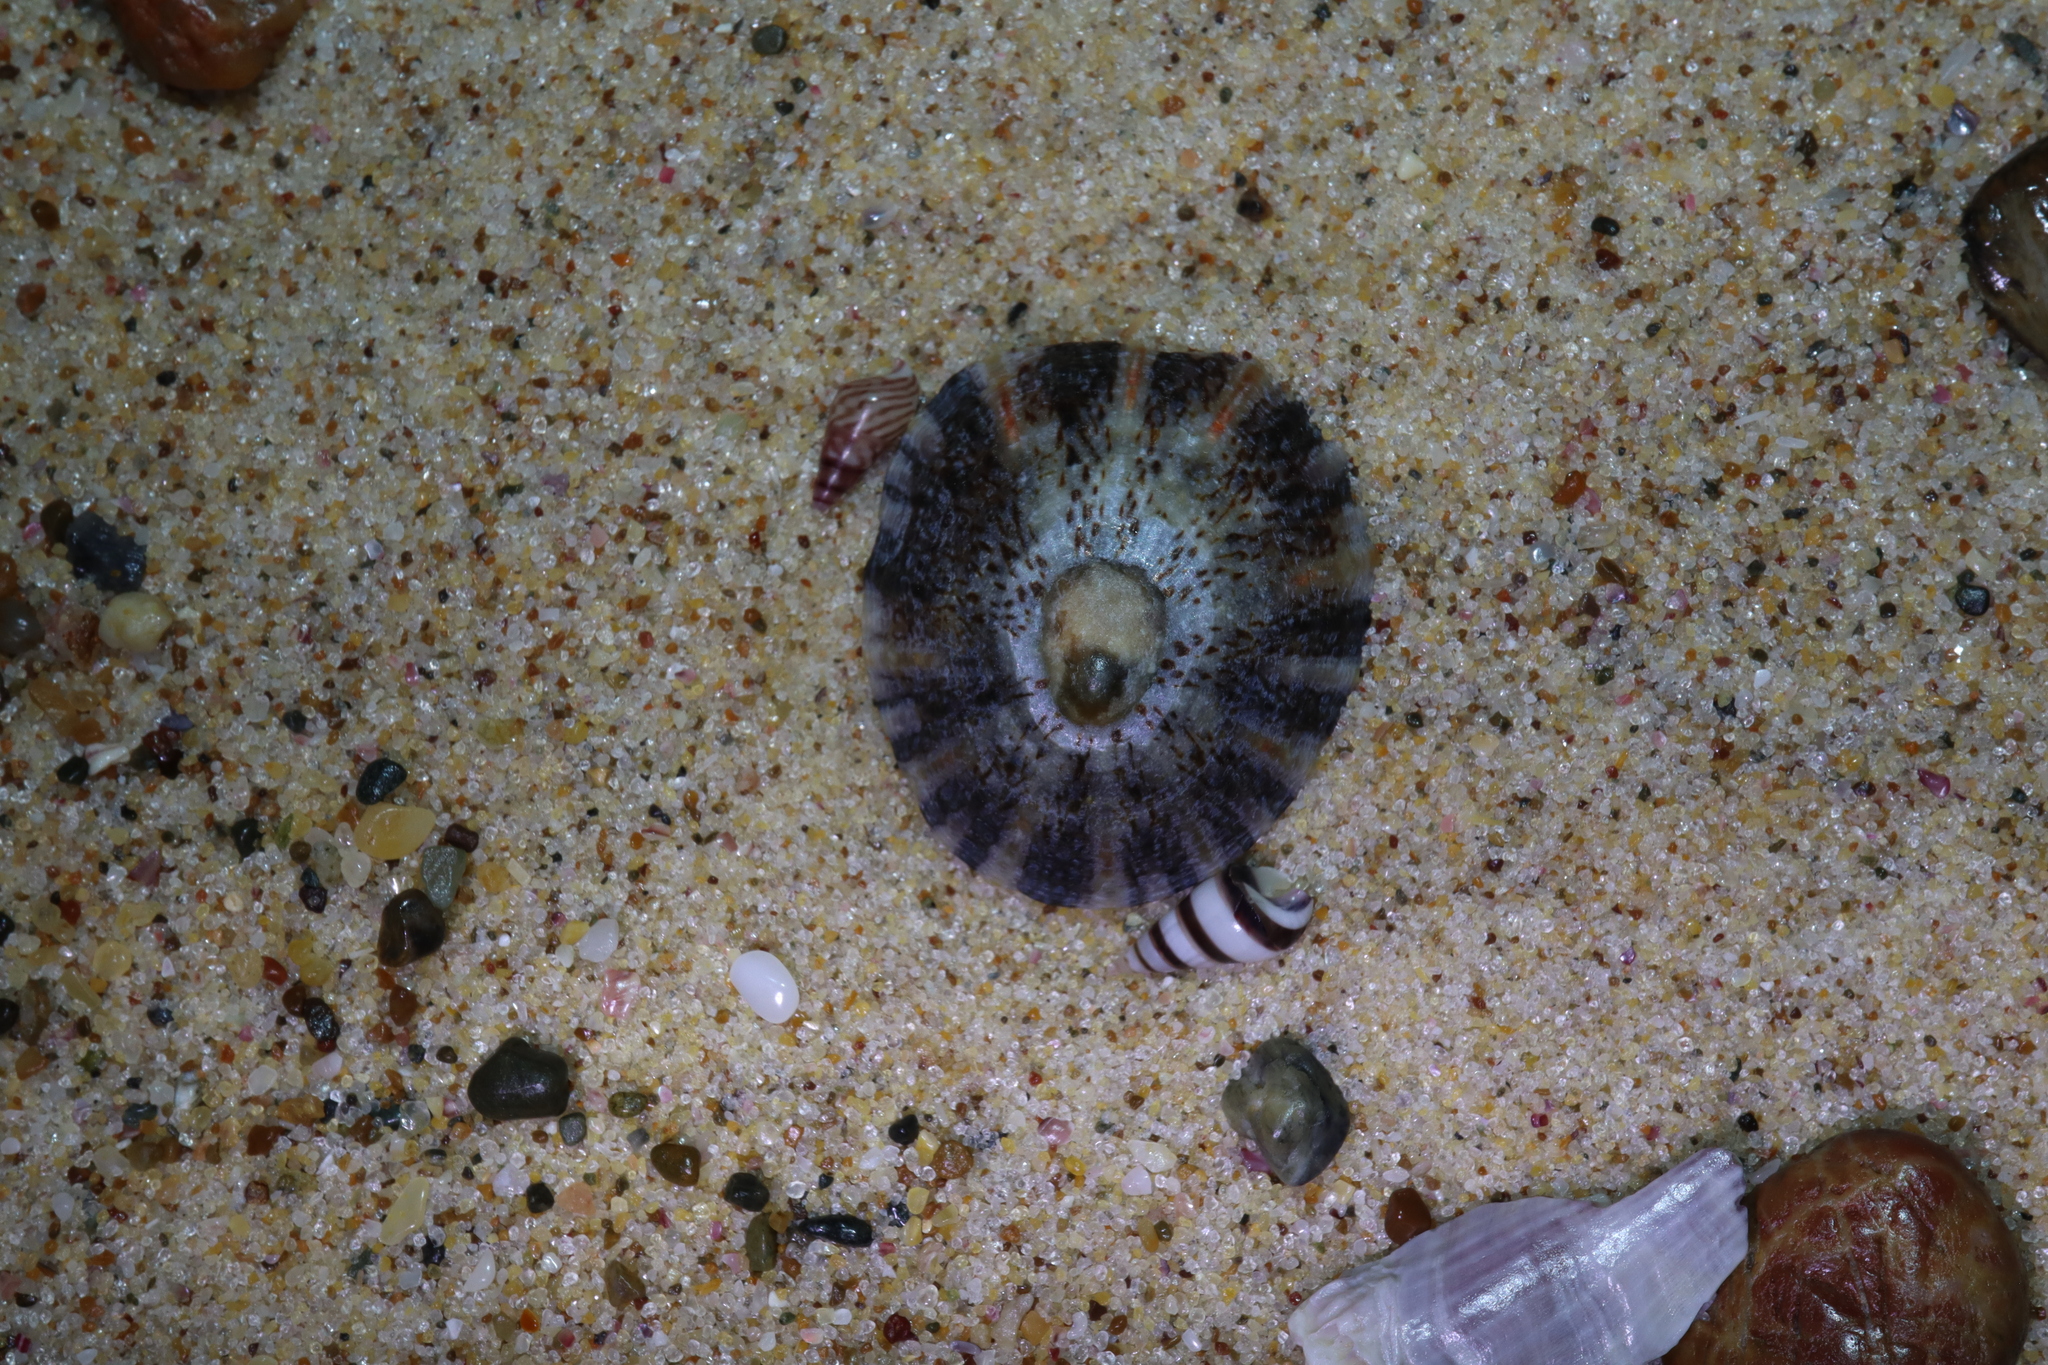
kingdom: Animalia
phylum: Mollusca
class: Gastropoda
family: Nacellidae
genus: Cellana
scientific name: Cellana tramoserica
